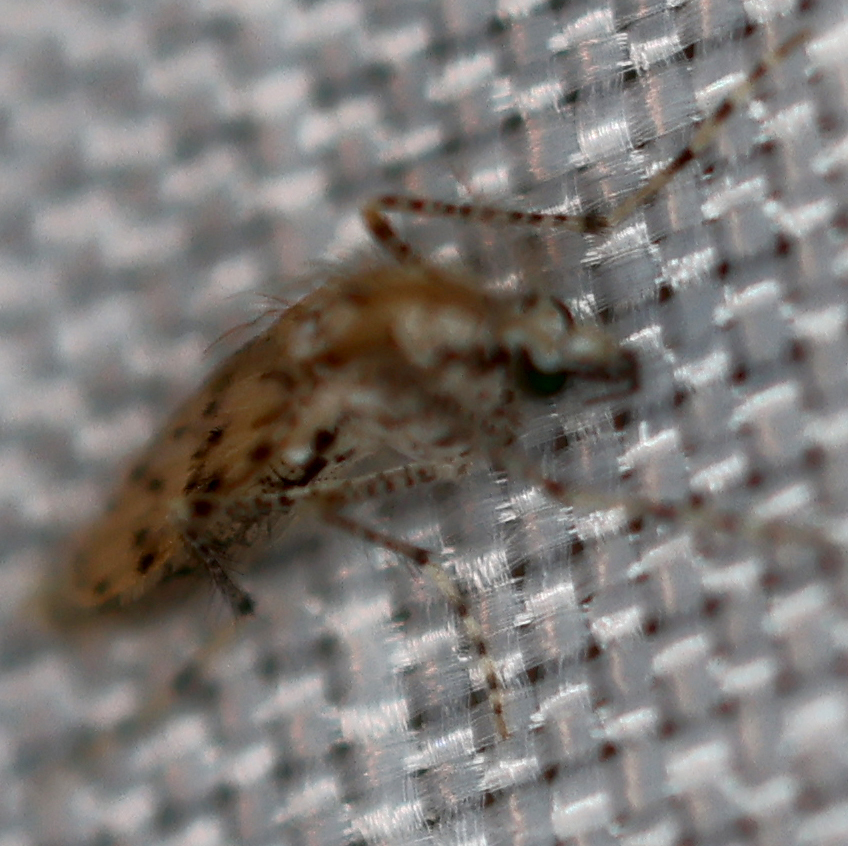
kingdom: Animalia
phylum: Arthropoda
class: Insecta
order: Diptera
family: Chaoboridae
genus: Chaoborus
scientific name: Chaoborus punctipennis
